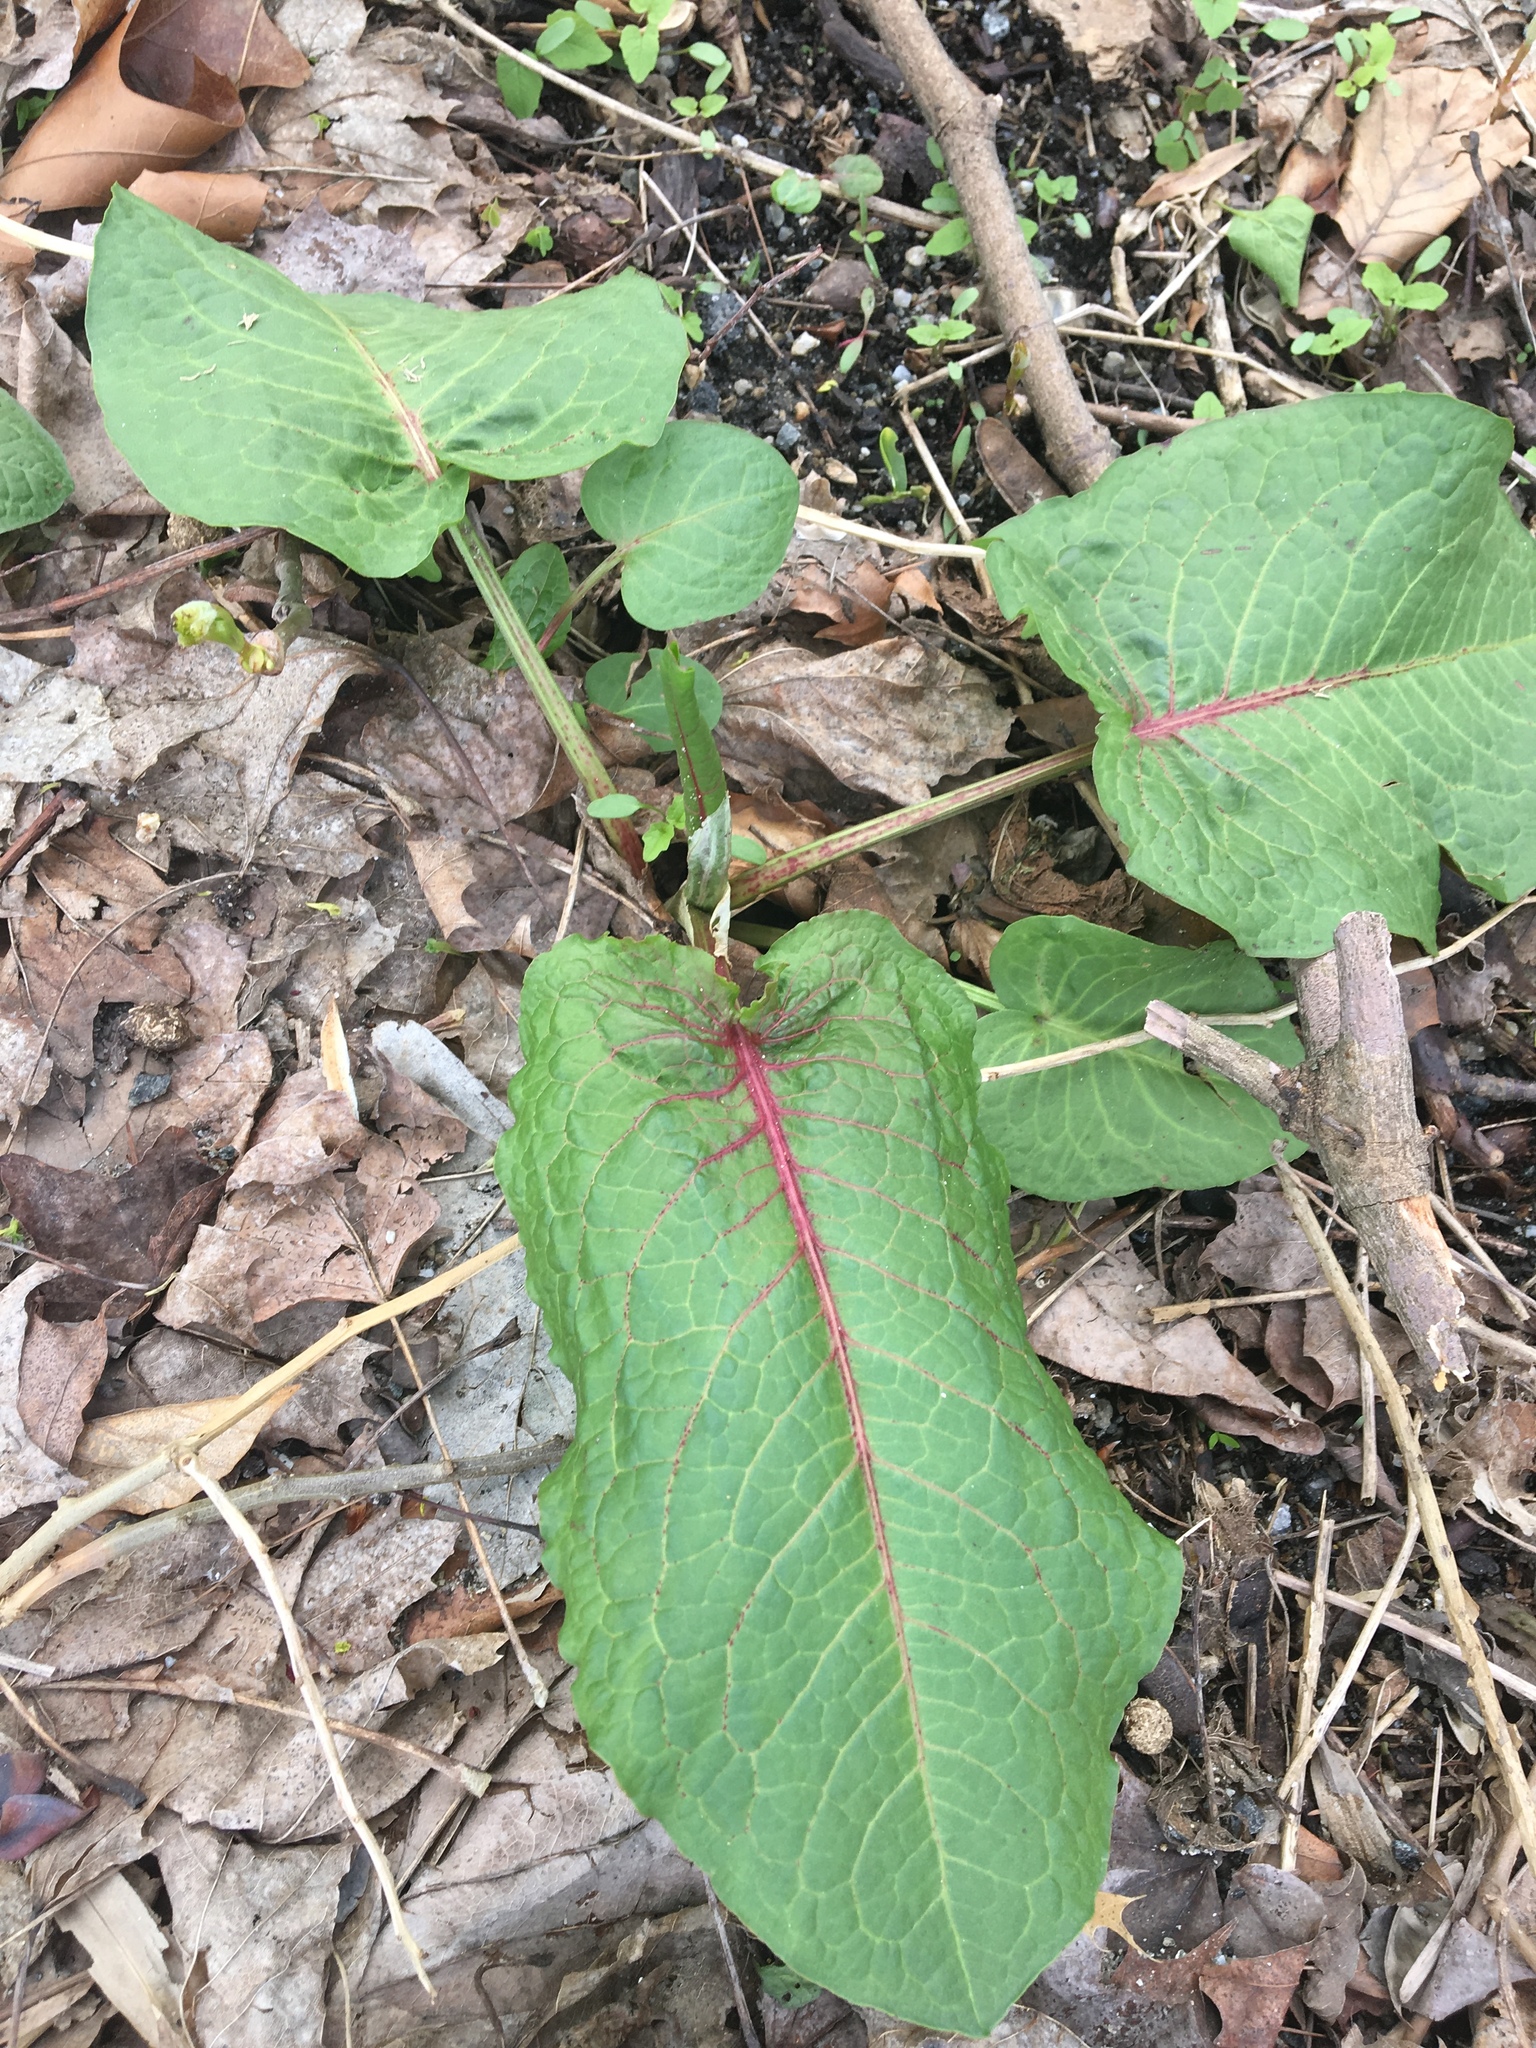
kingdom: Plantae
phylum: Tracheophyta
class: Magnoliopsida
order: Caryophyllales
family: Polygonaceae
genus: Rumex
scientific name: Rumex obtusifolius
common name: Bitter dock
